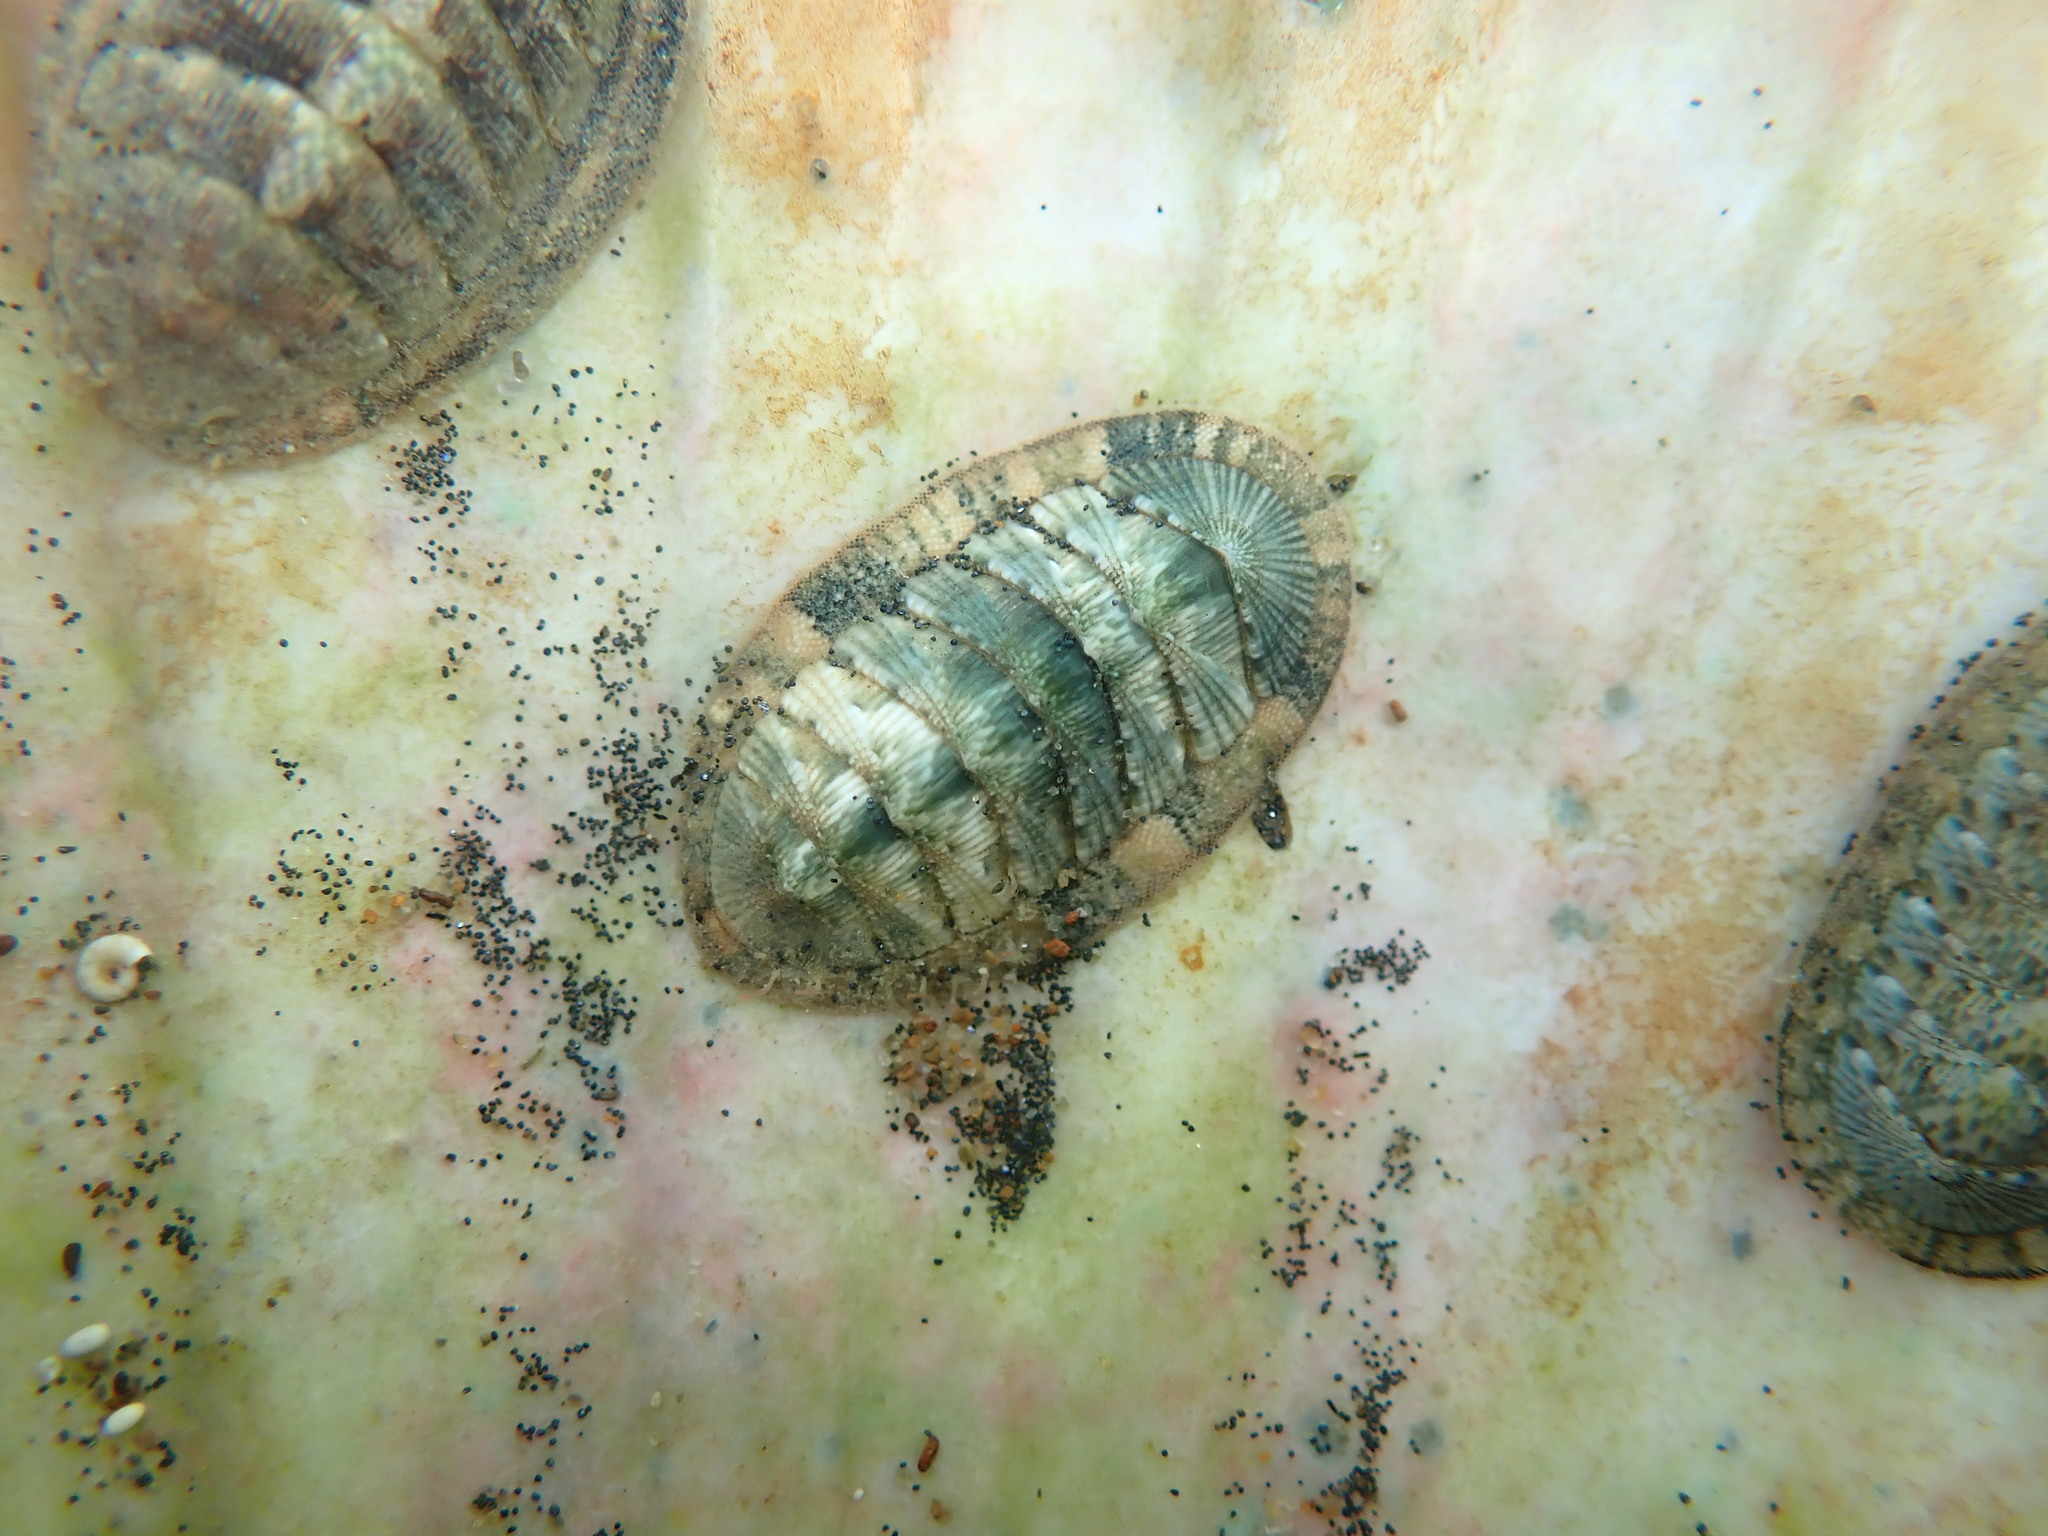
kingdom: Animalia
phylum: Mollusca
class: Polyplacophora
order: Chitonida
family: Chitonidae
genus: Rhyssoplax
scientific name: Rhyssoplax stangeri
